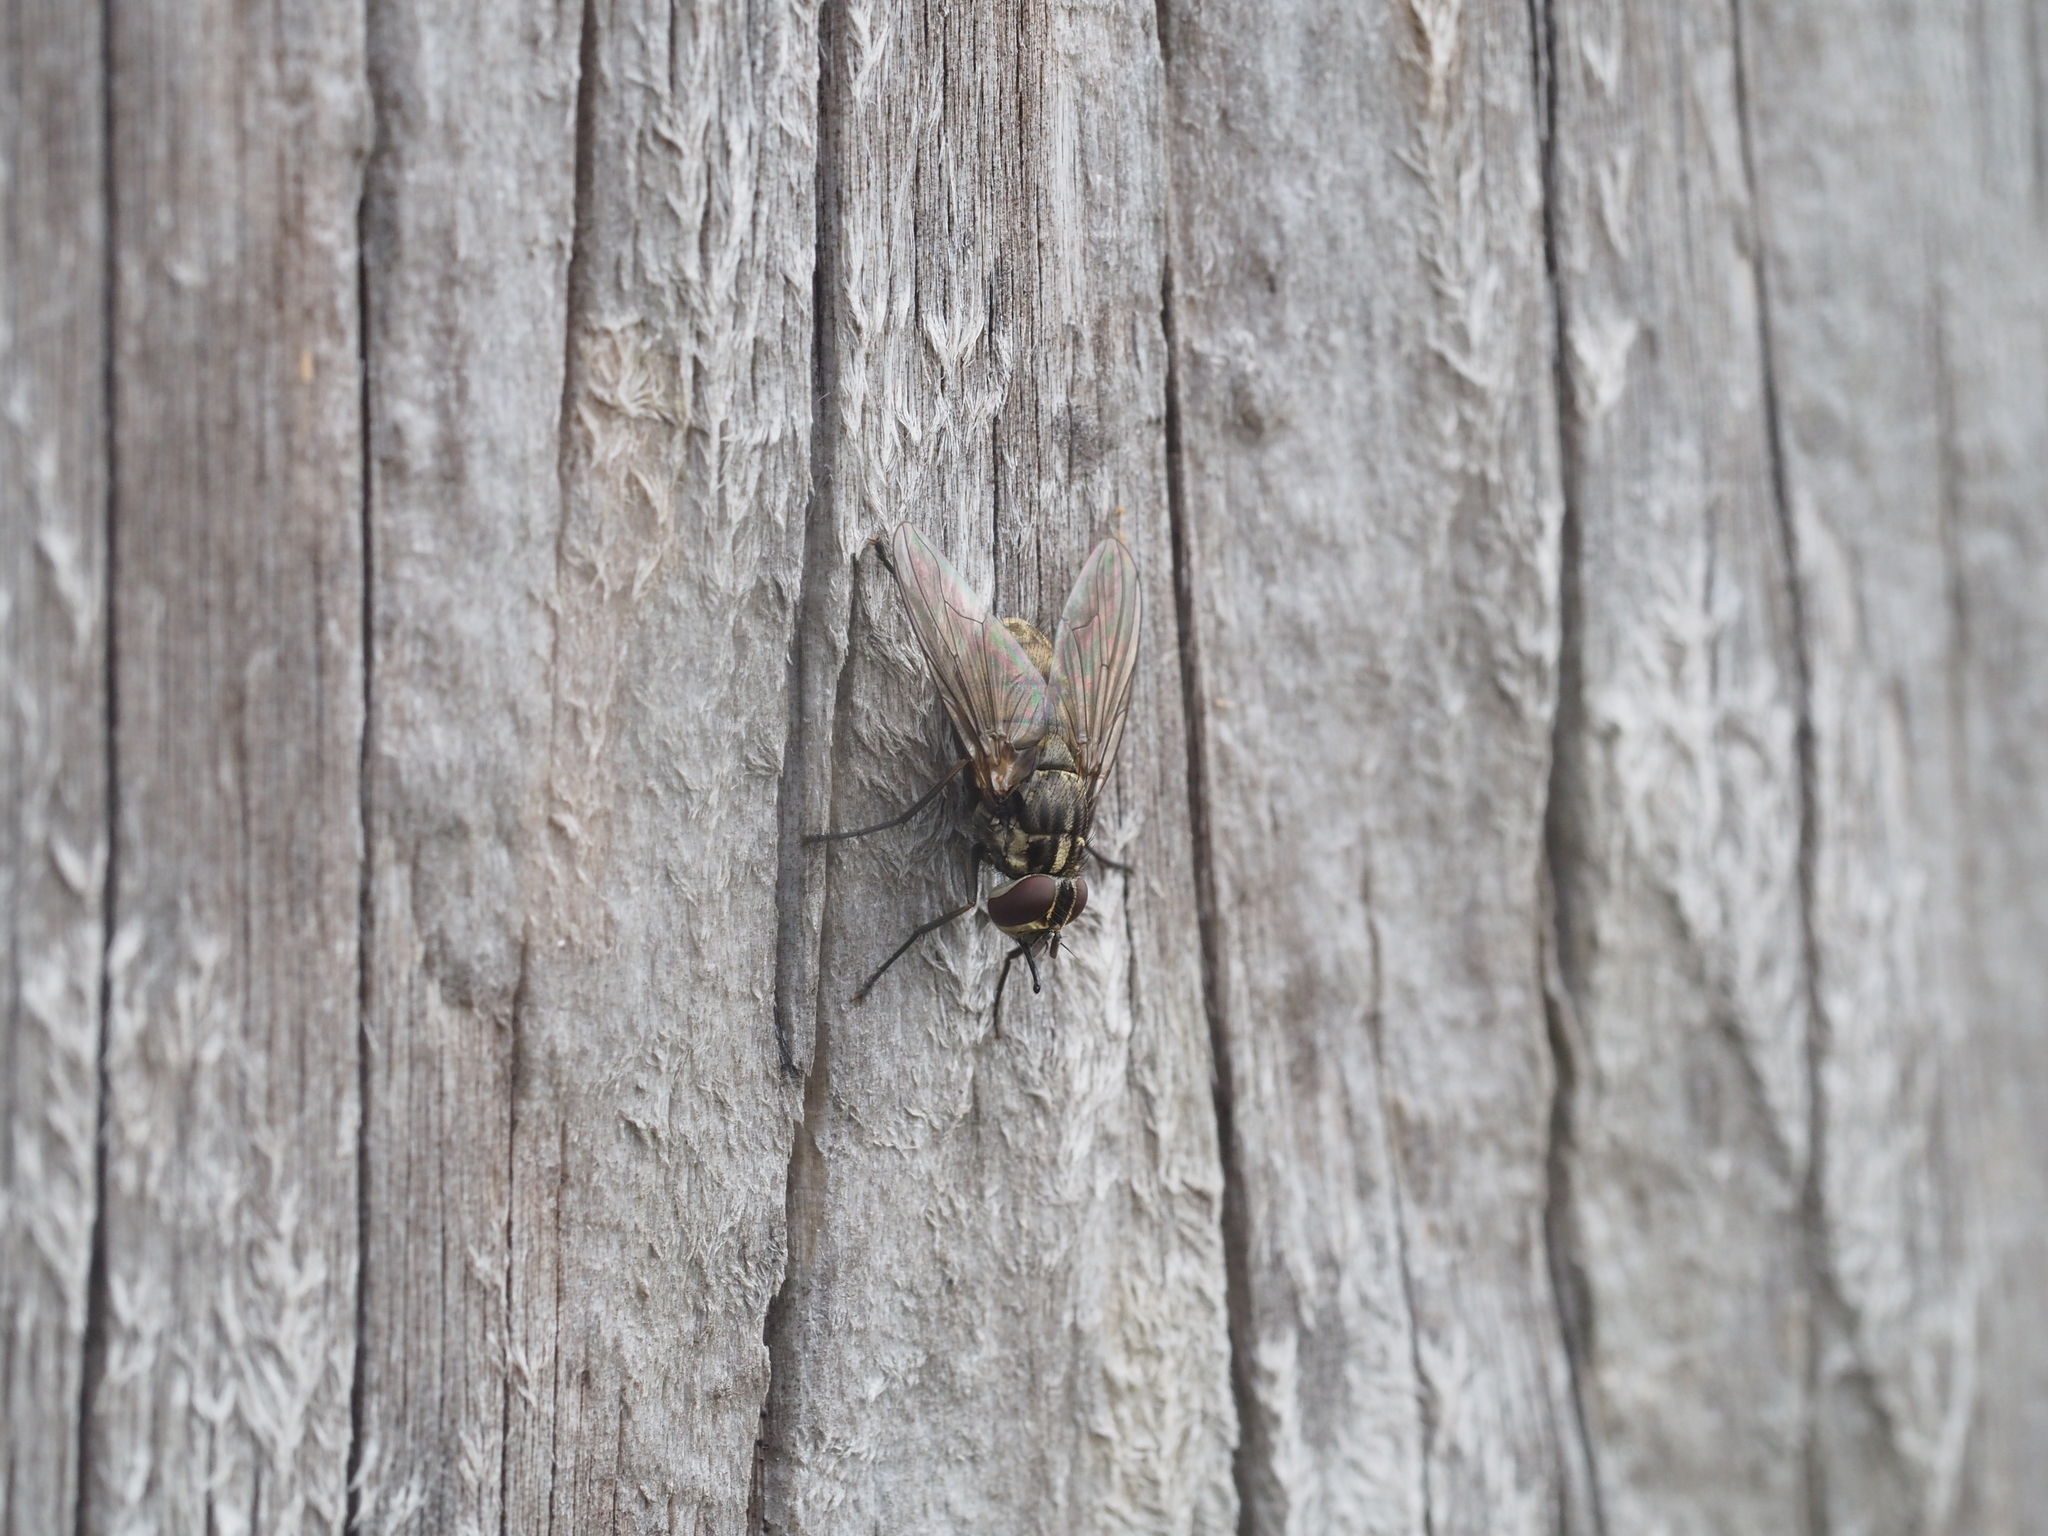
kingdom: Animalia
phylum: Arthropoda
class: Insecta
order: Diptera
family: Muscidae
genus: Stomoxys
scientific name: Stomoxys calcitrans
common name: Stable fly
